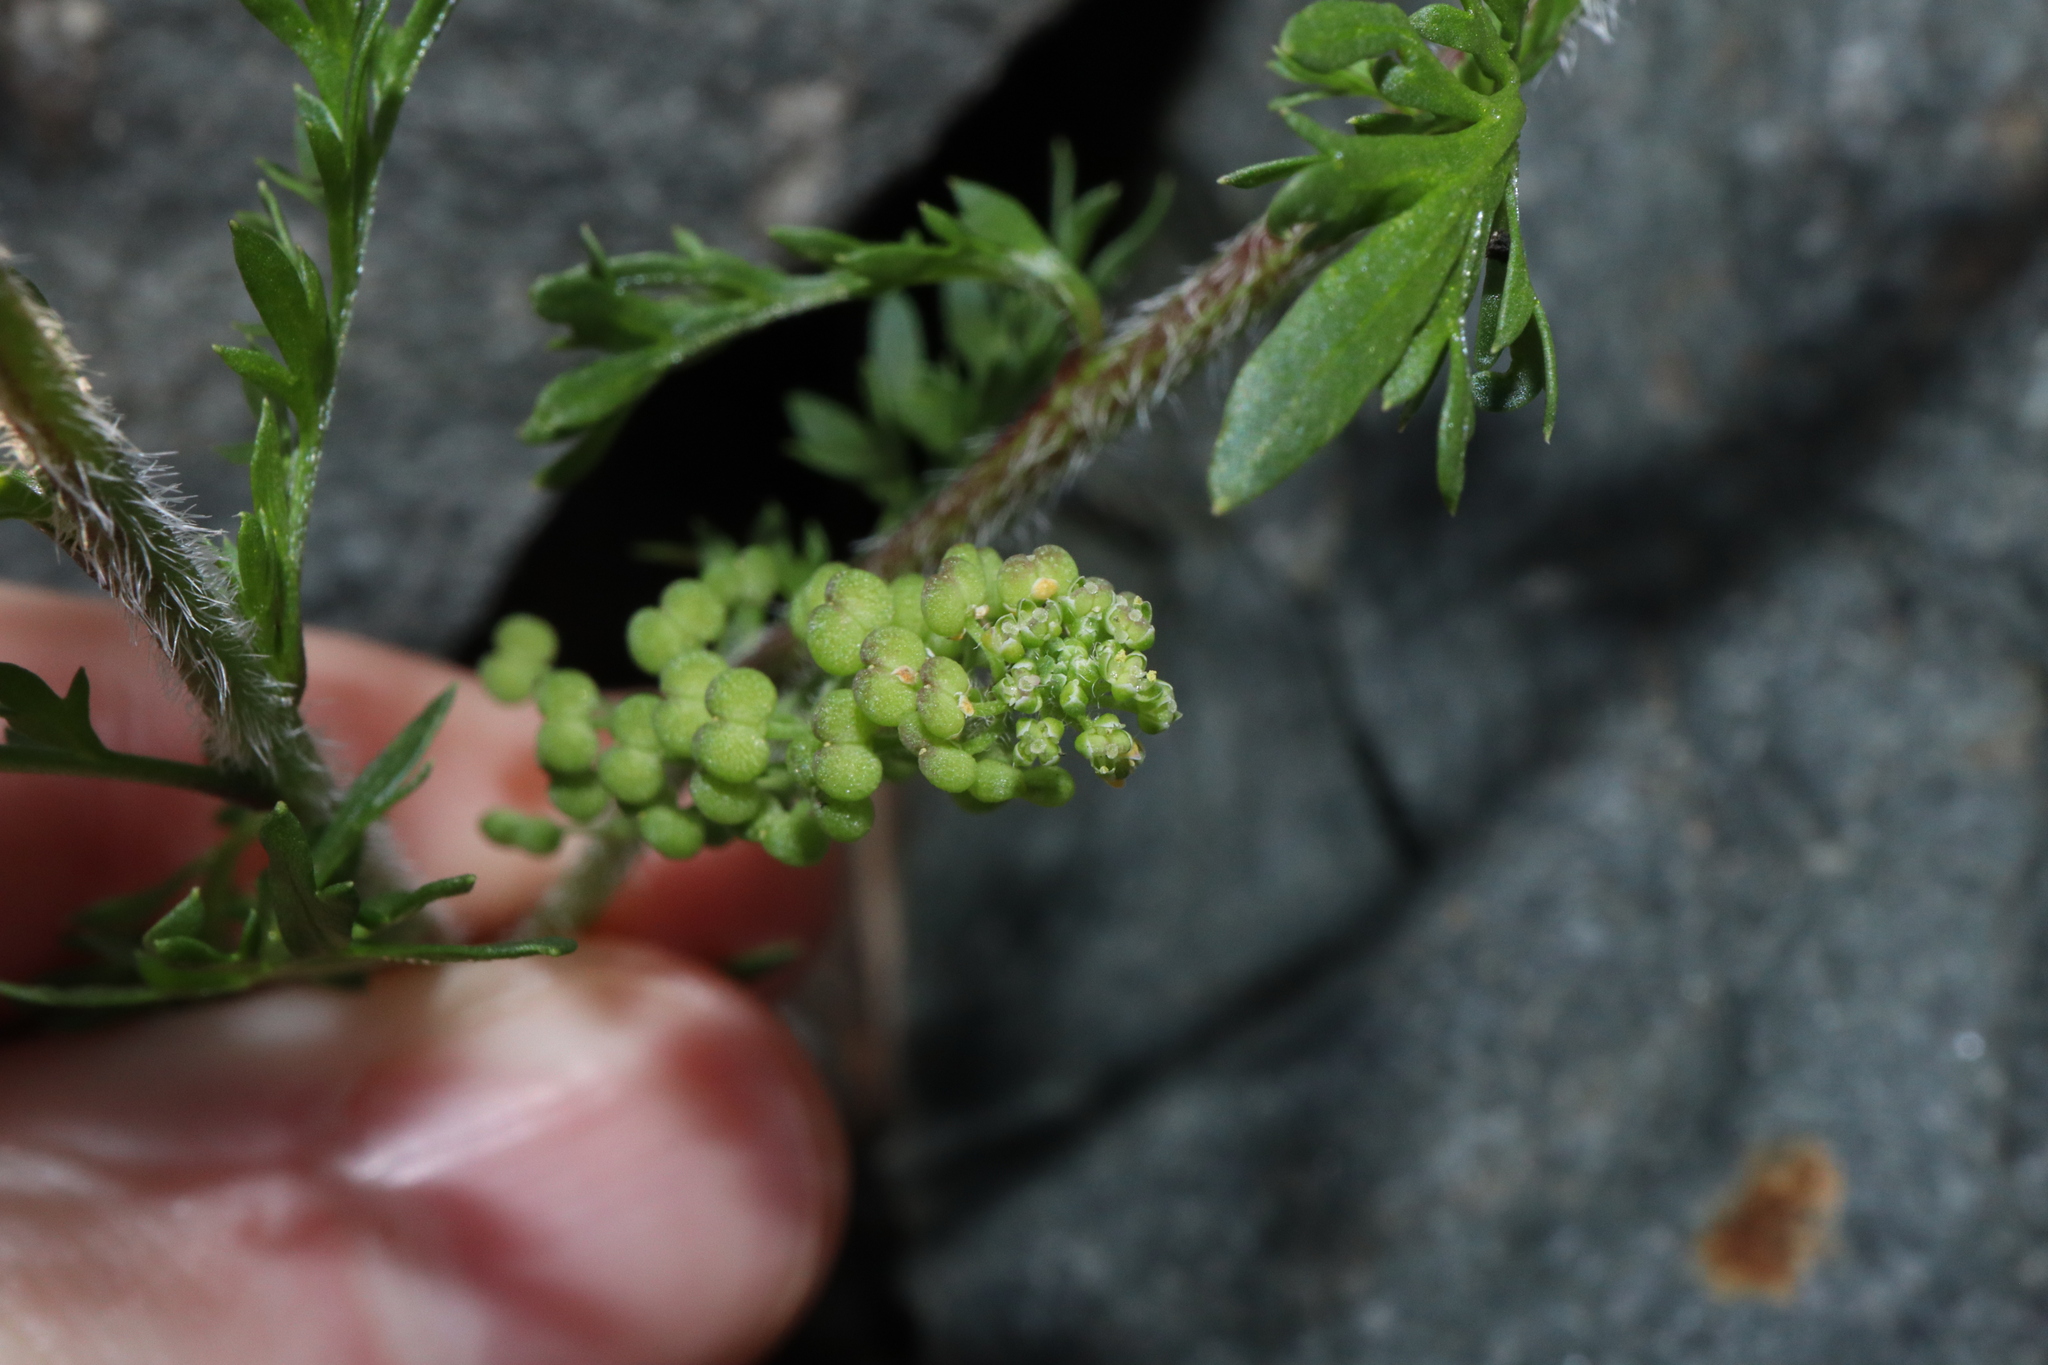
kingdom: Plantae
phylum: Tracheophyta
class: Magnoliopsida
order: Brassicales
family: Brassicaceae
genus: Lepidium
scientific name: Lepidium didymum
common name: Lesser swinecress
